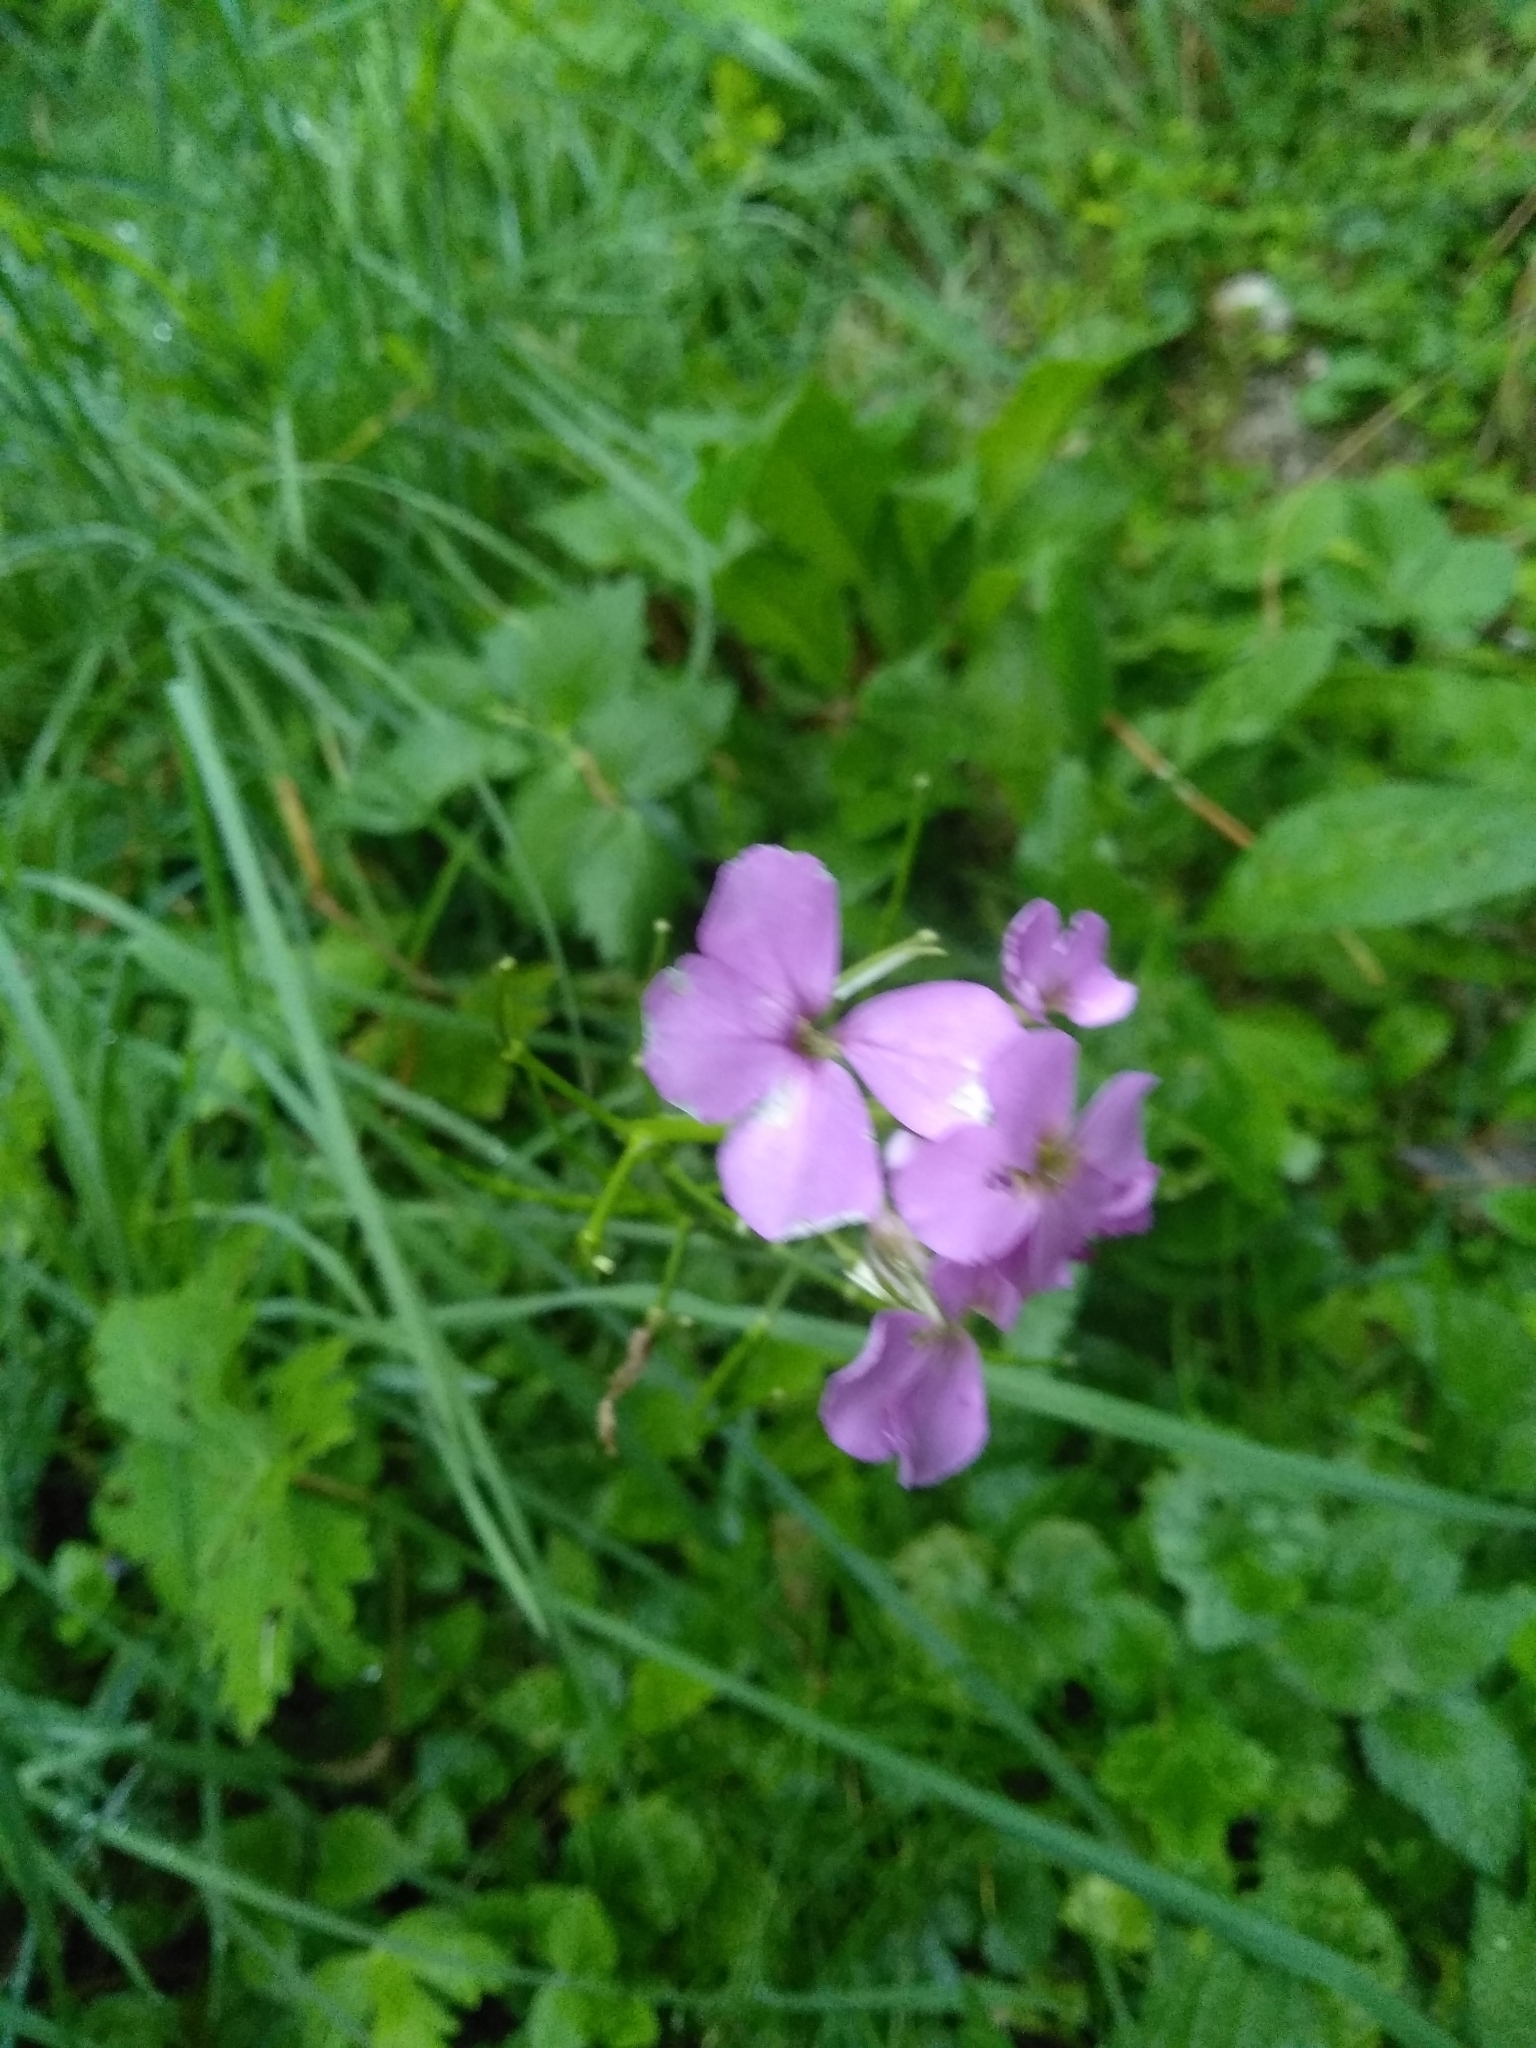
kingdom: Plantae
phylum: Tracheophyta
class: Magnoliopsida
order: Brassicales
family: Brassicaceae
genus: Hesperis
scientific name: Hesperis matronalis
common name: Dame's-violet
